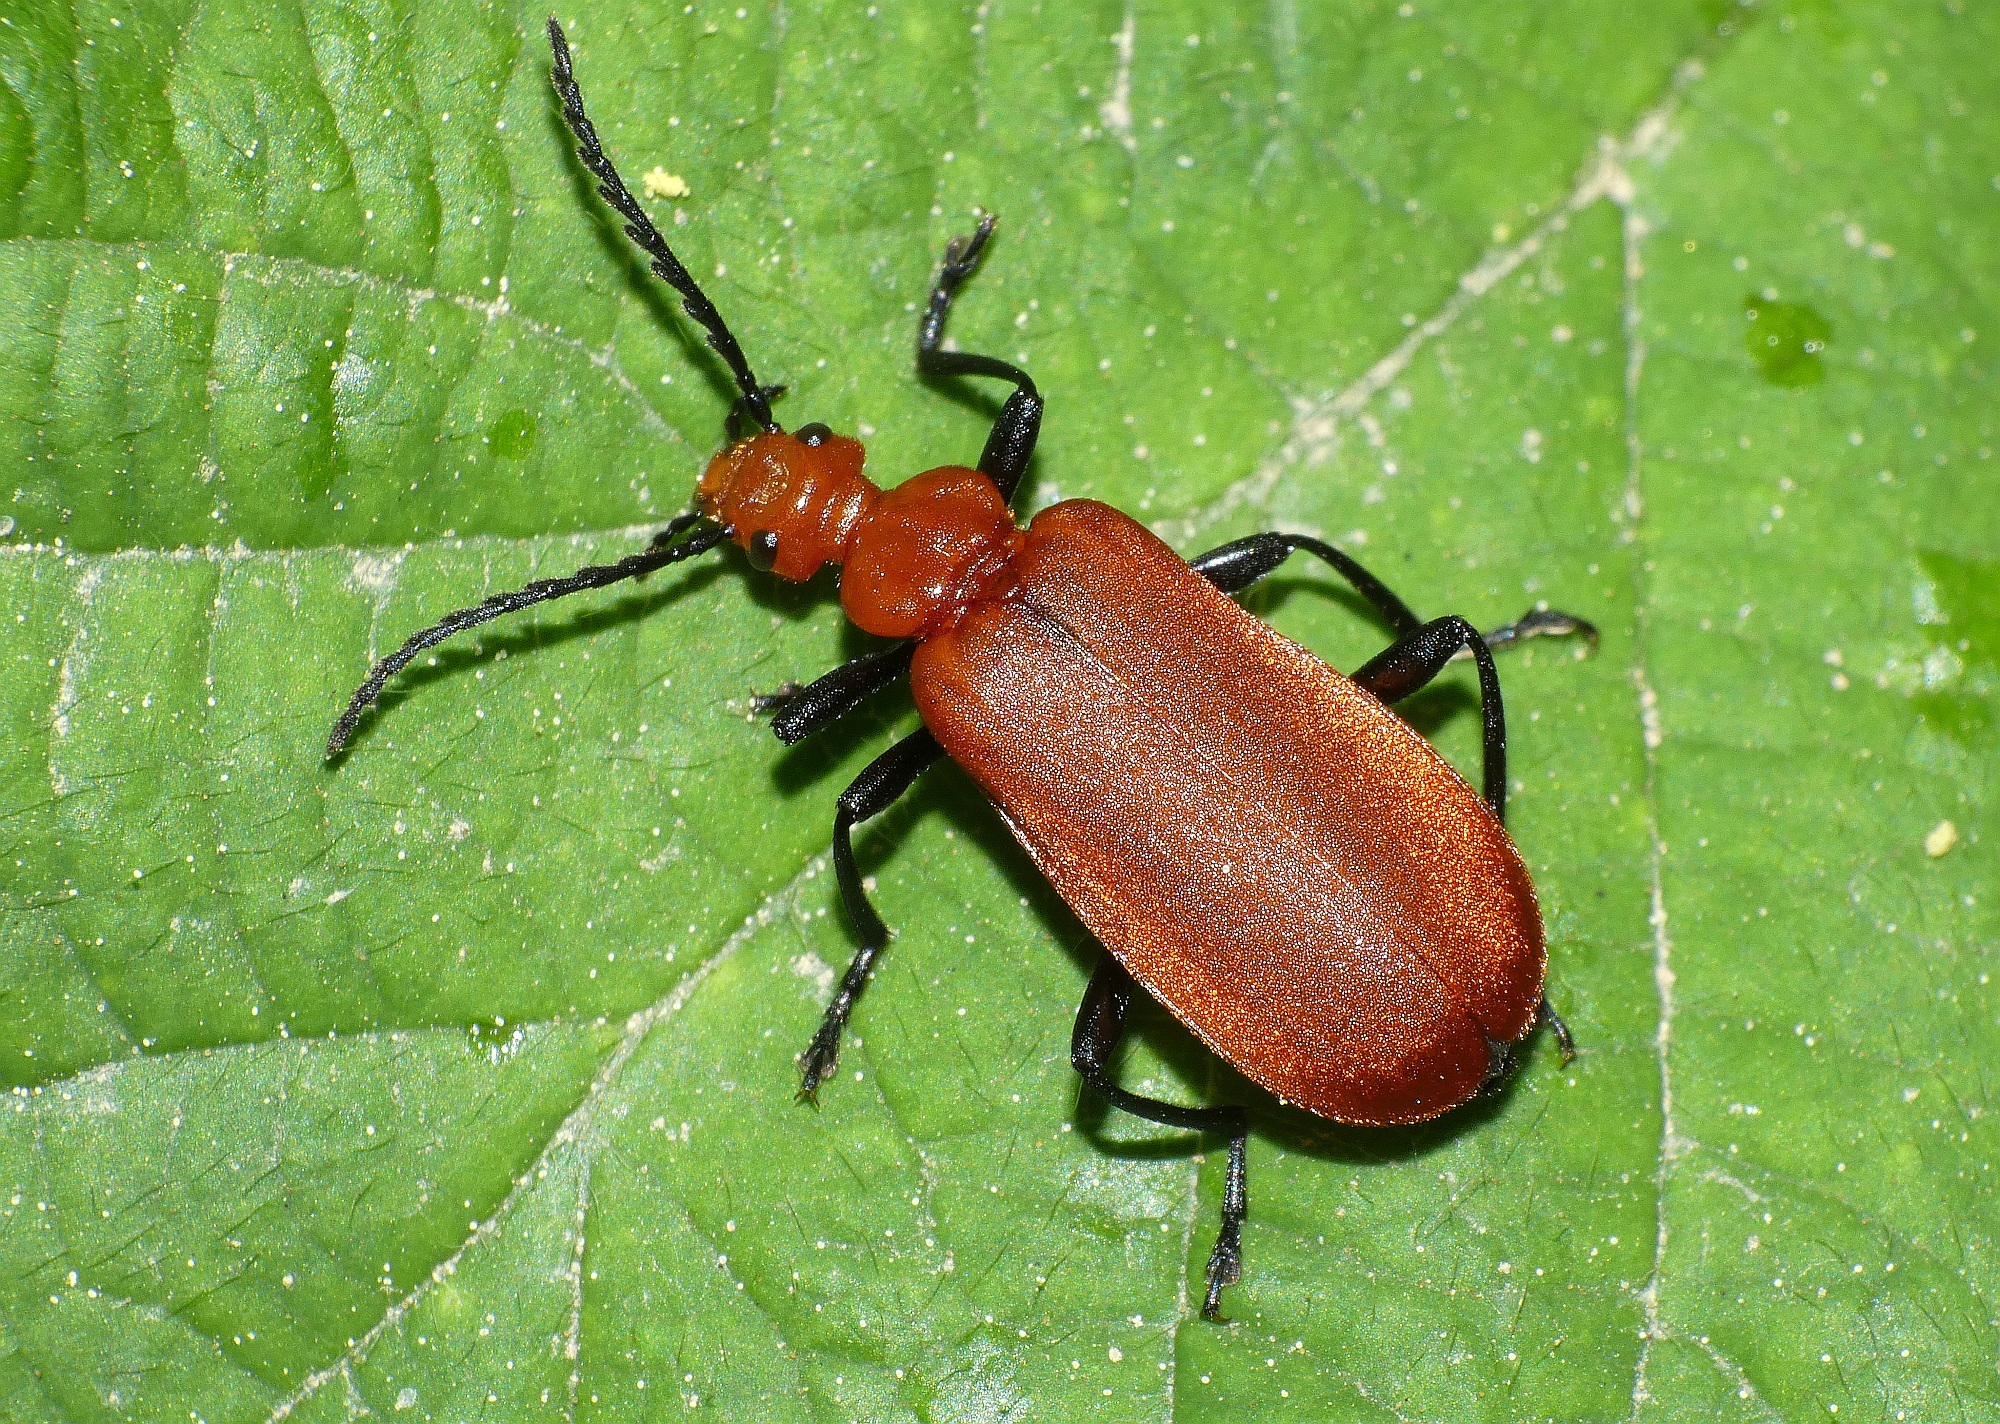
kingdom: Animalia
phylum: Arthropoda
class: Insecta
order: Coleoptera
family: Pyrochroidae
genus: Pyrochroa
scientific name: Pyrochroa serraticornis
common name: Red-headed cardinal beetle
